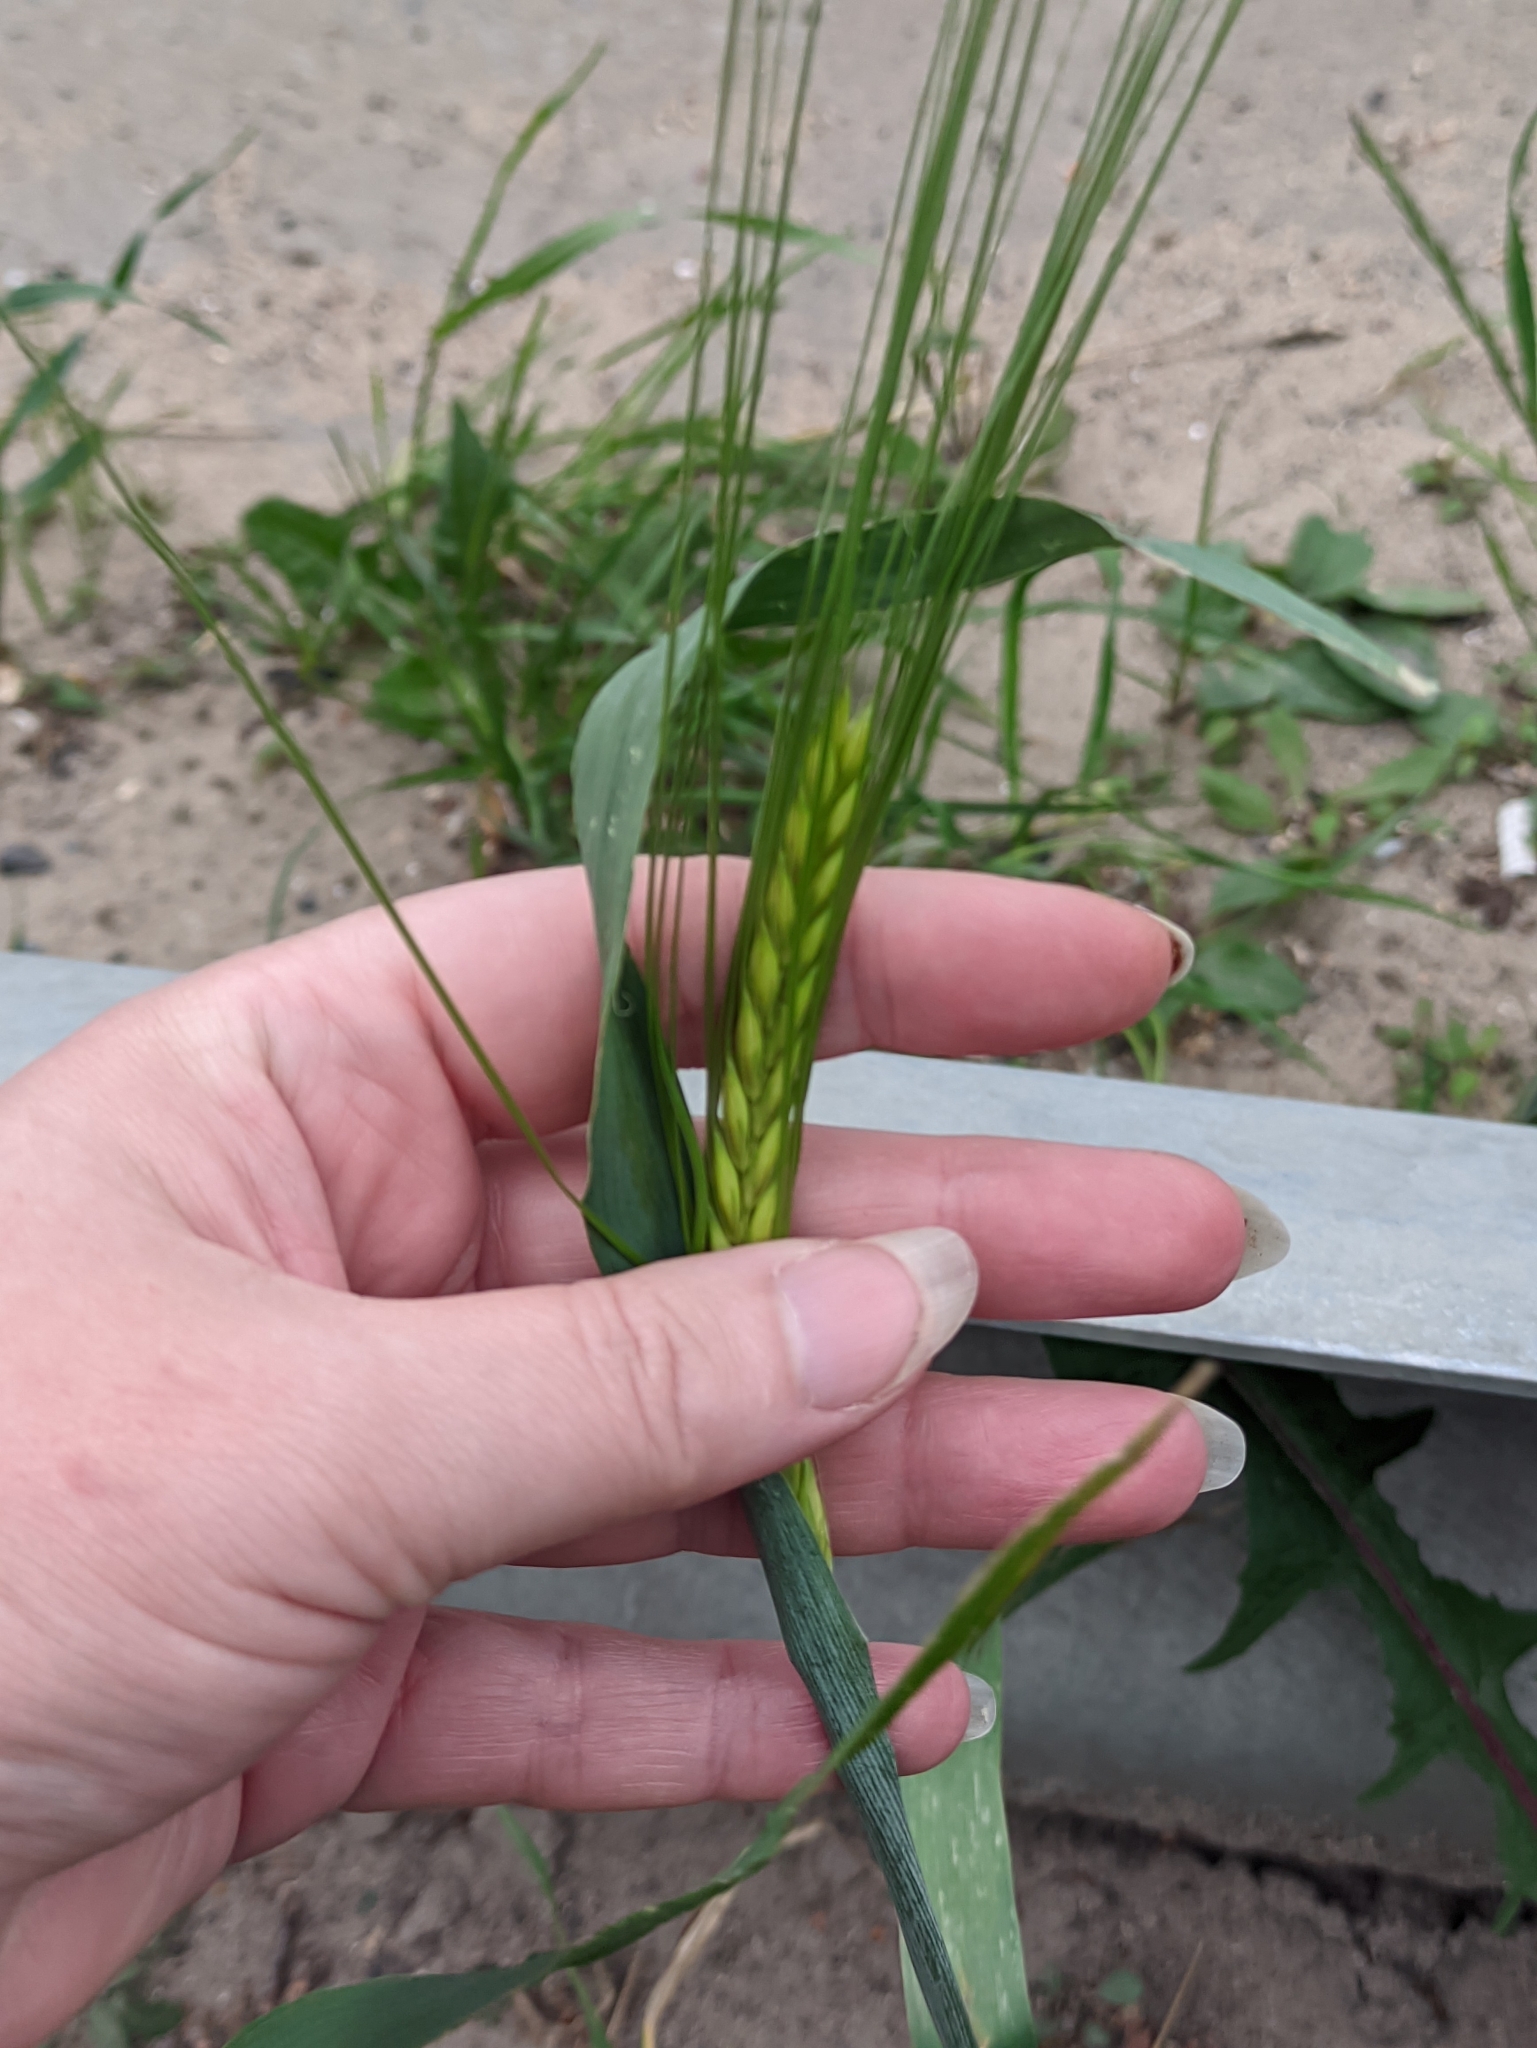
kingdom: Plantae
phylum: Tracheophyta
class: Liliopsida
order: Poales
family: Poaceae
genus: Hordeum
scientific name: Hordeum vulgare
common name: Common barley
